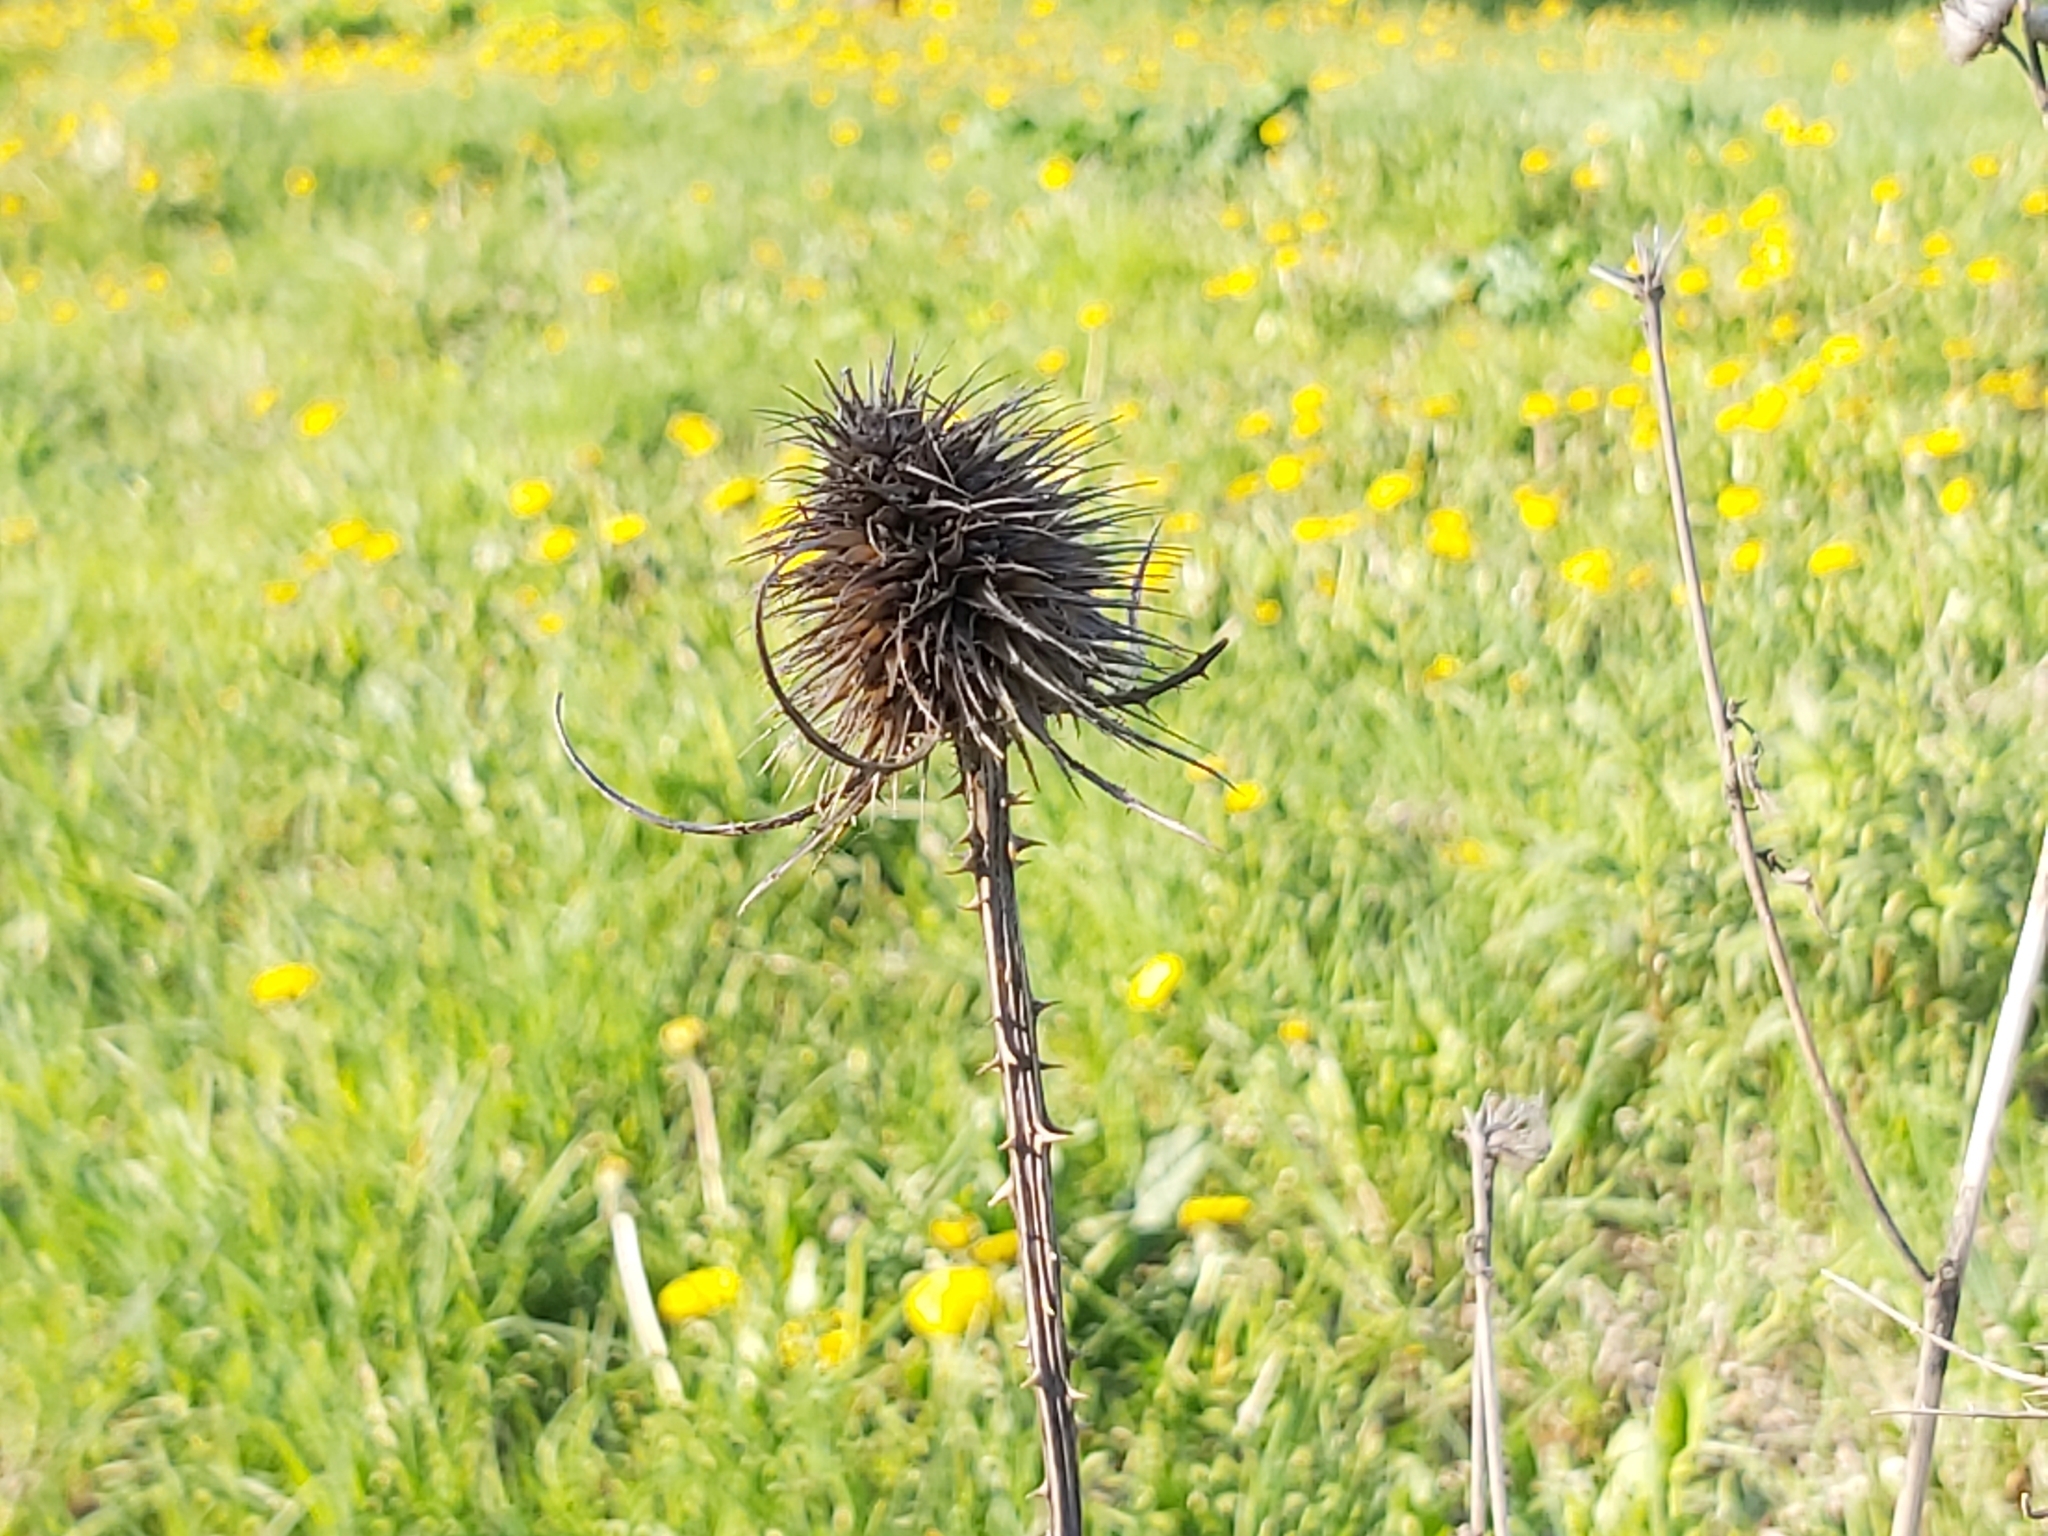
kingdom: Plantae
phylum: Tracheophyta
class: Magnoliopsida
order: Dipsacales
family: Caprifoliaceae
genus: Dipsacus
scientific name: Dipsacus fullonum
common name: Teasel
